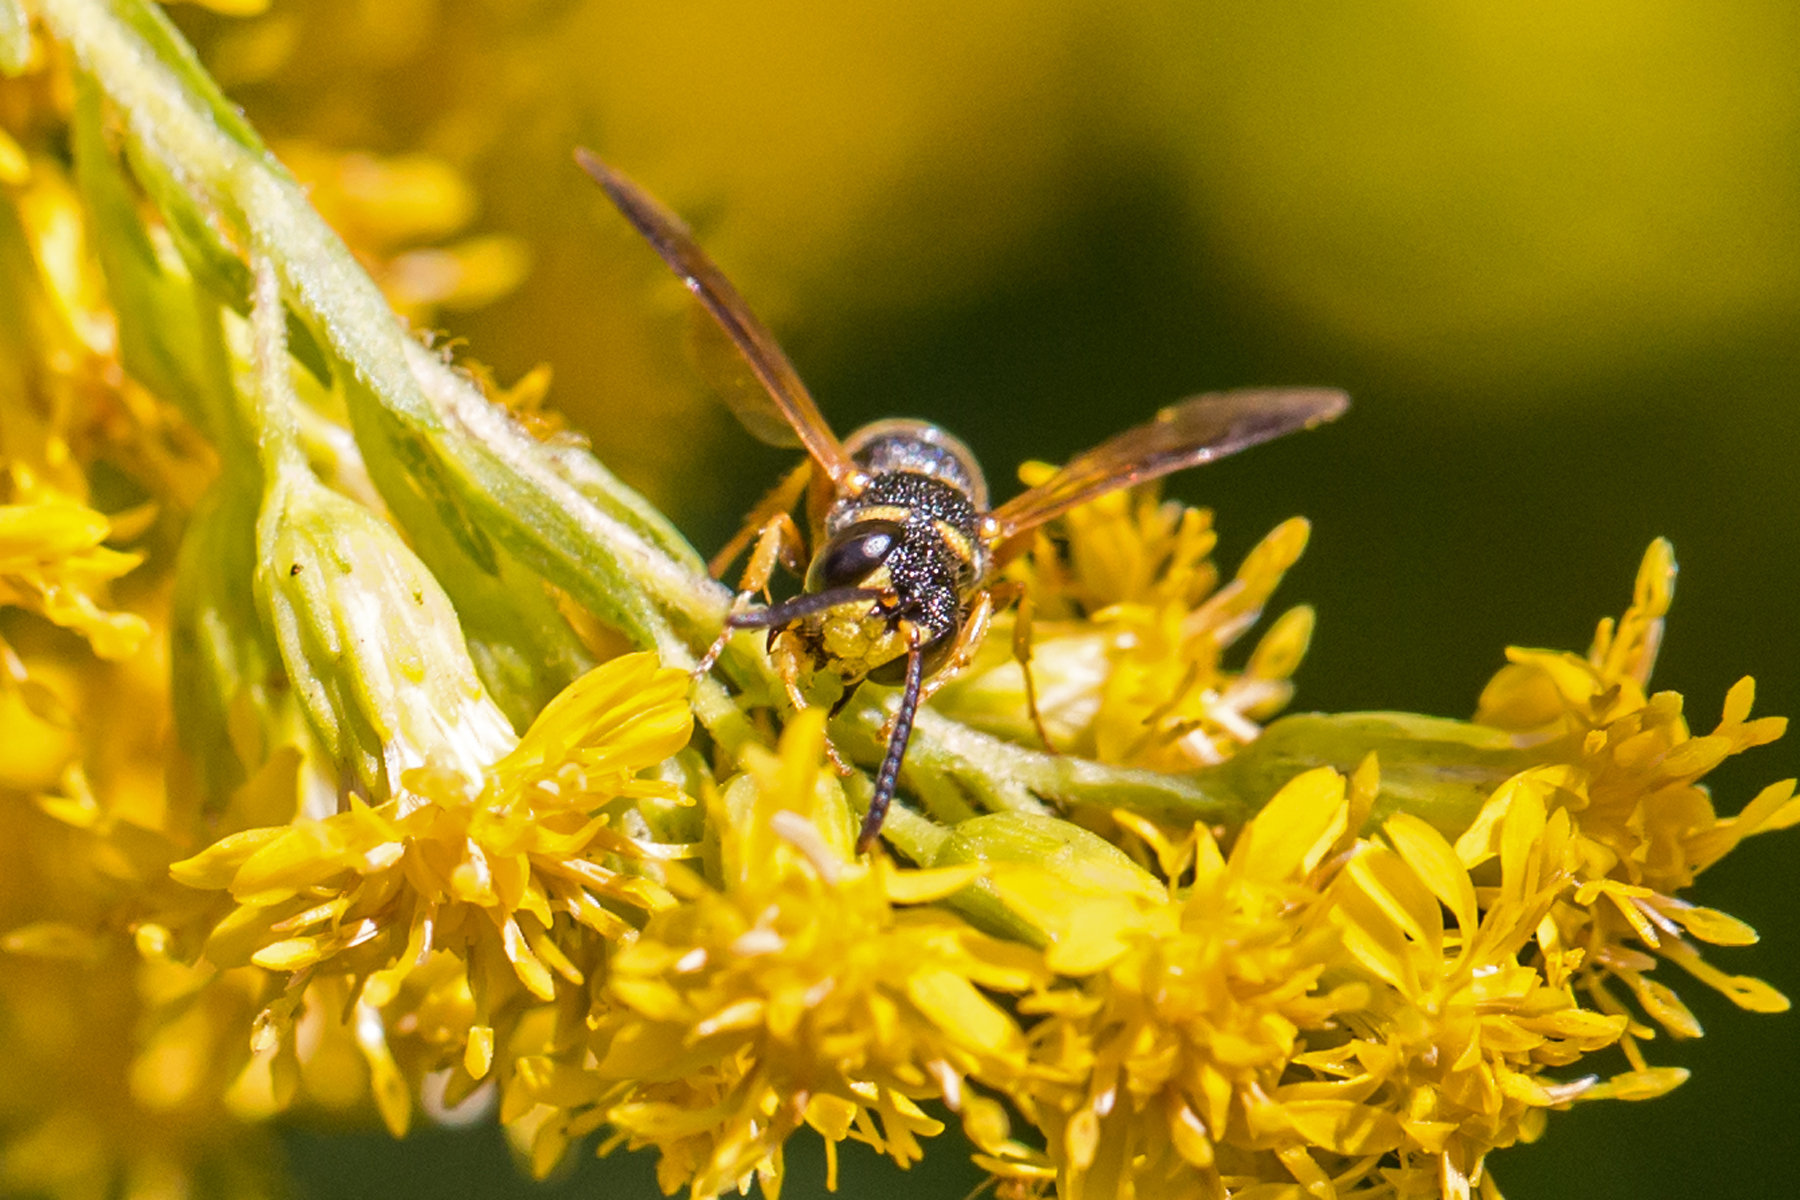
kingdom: Animalia
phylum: Arthropoda
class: Insecta
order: Hymenoptera
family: Crabronidae
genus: Cerceris
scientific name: Cerceris insolita
